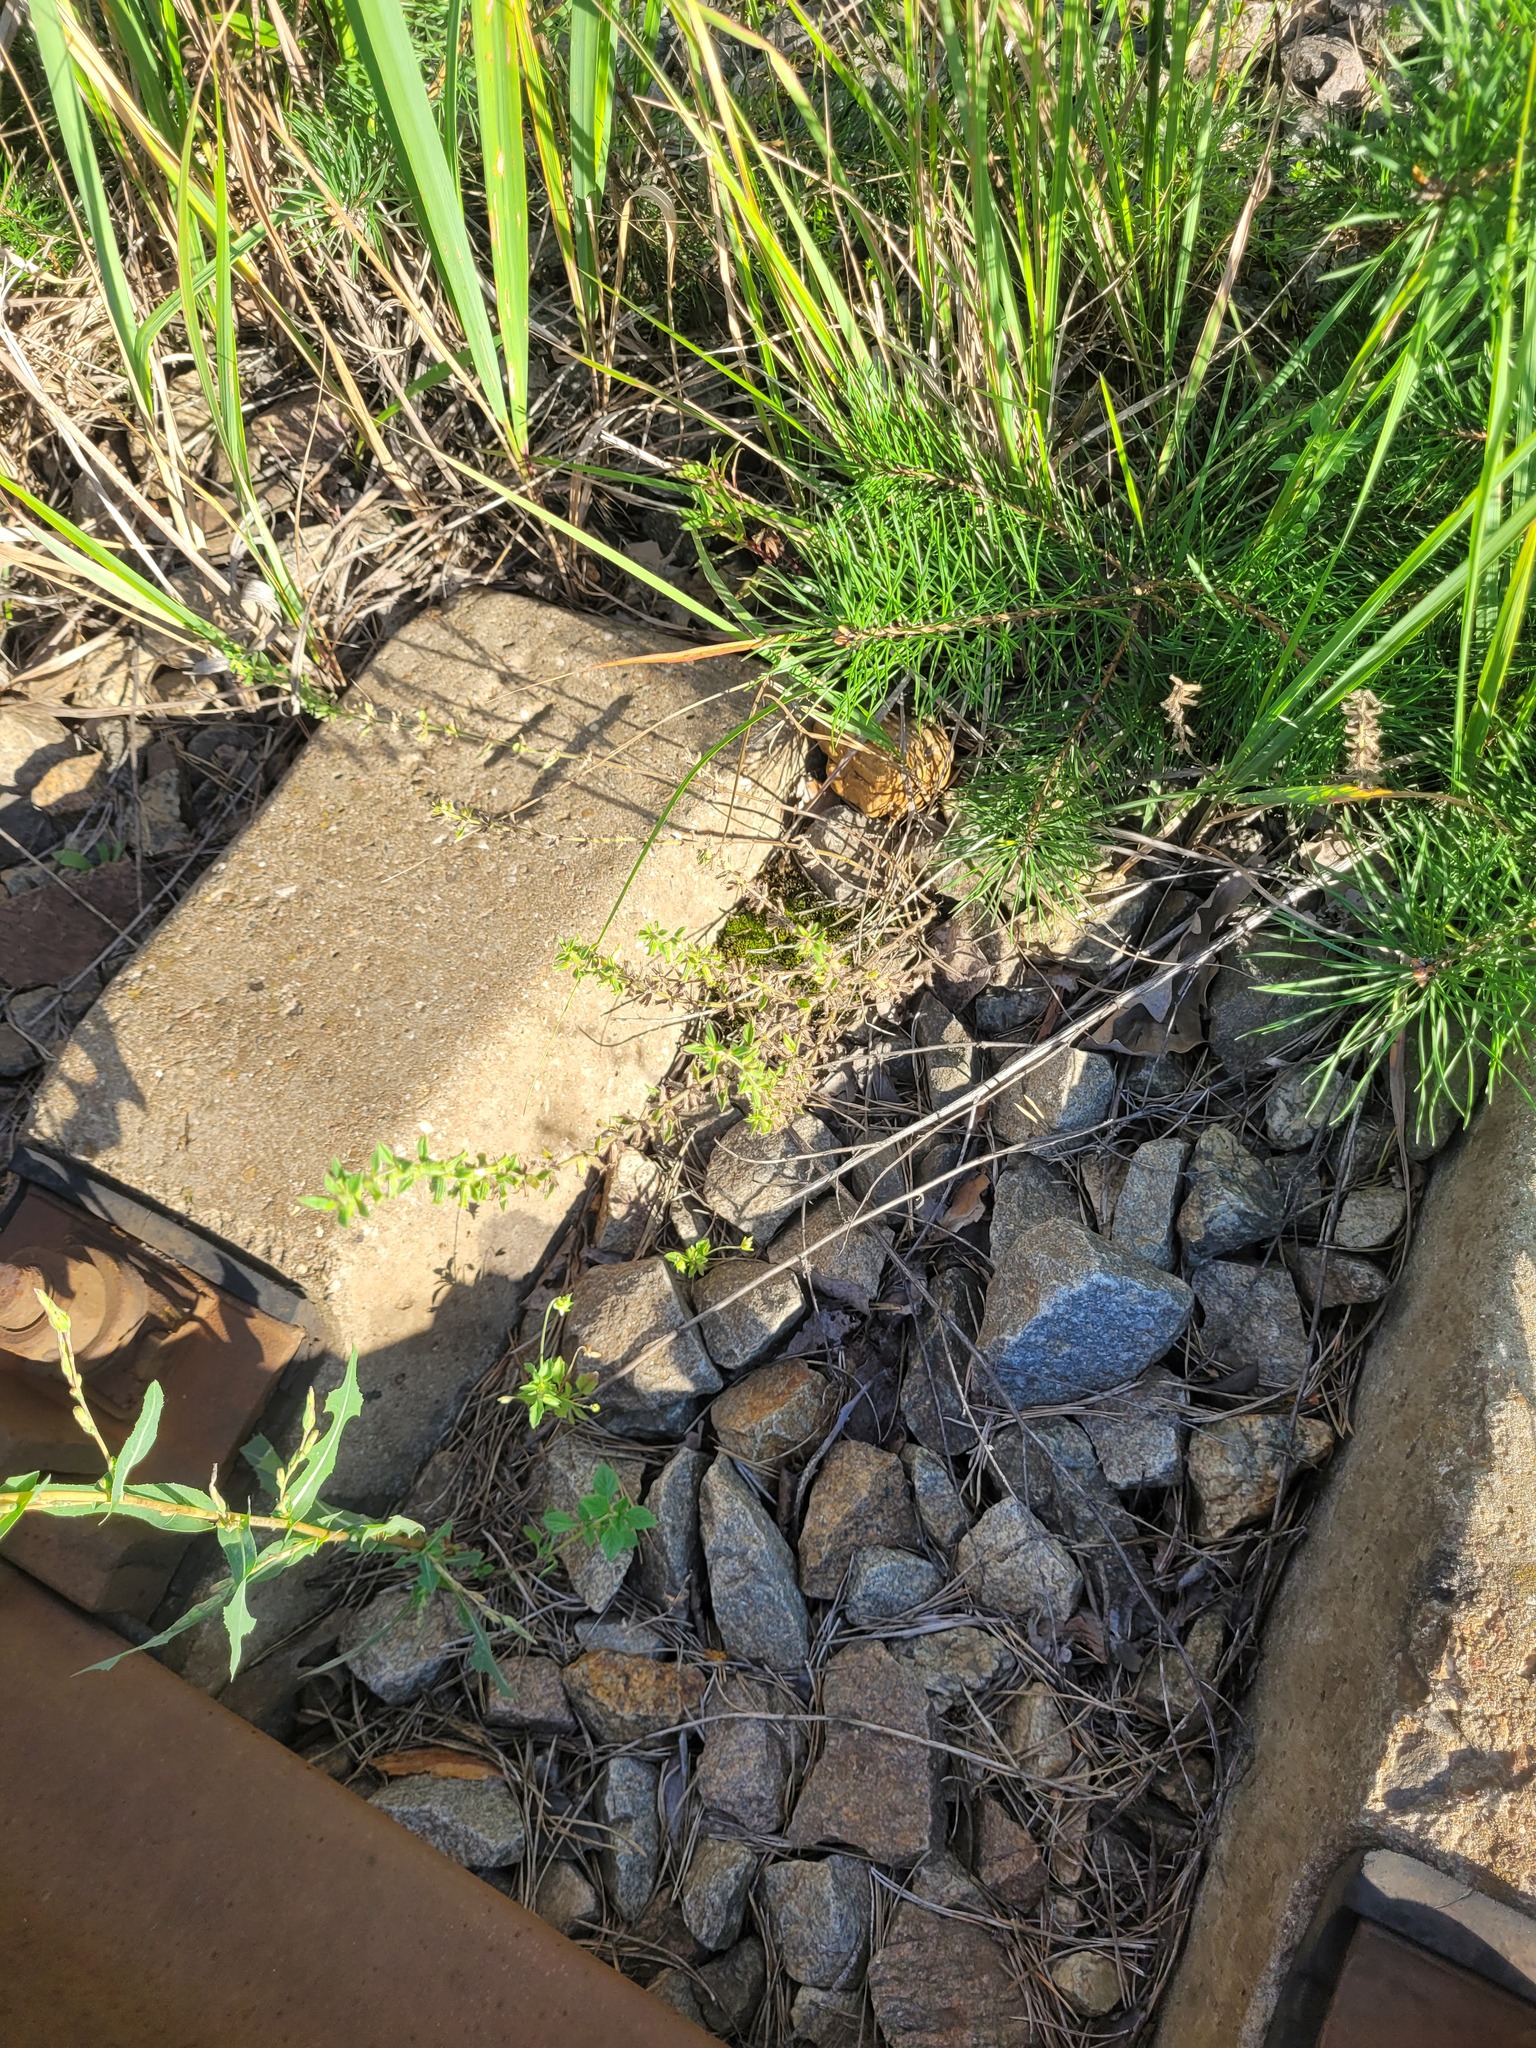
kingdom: Plantae
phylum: Tracheophyta
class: Magnoliopsida
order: Lamiales
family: Lamiaceae
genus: Clinopodium
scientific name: Clinopodium acinos
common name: Basil thyme
